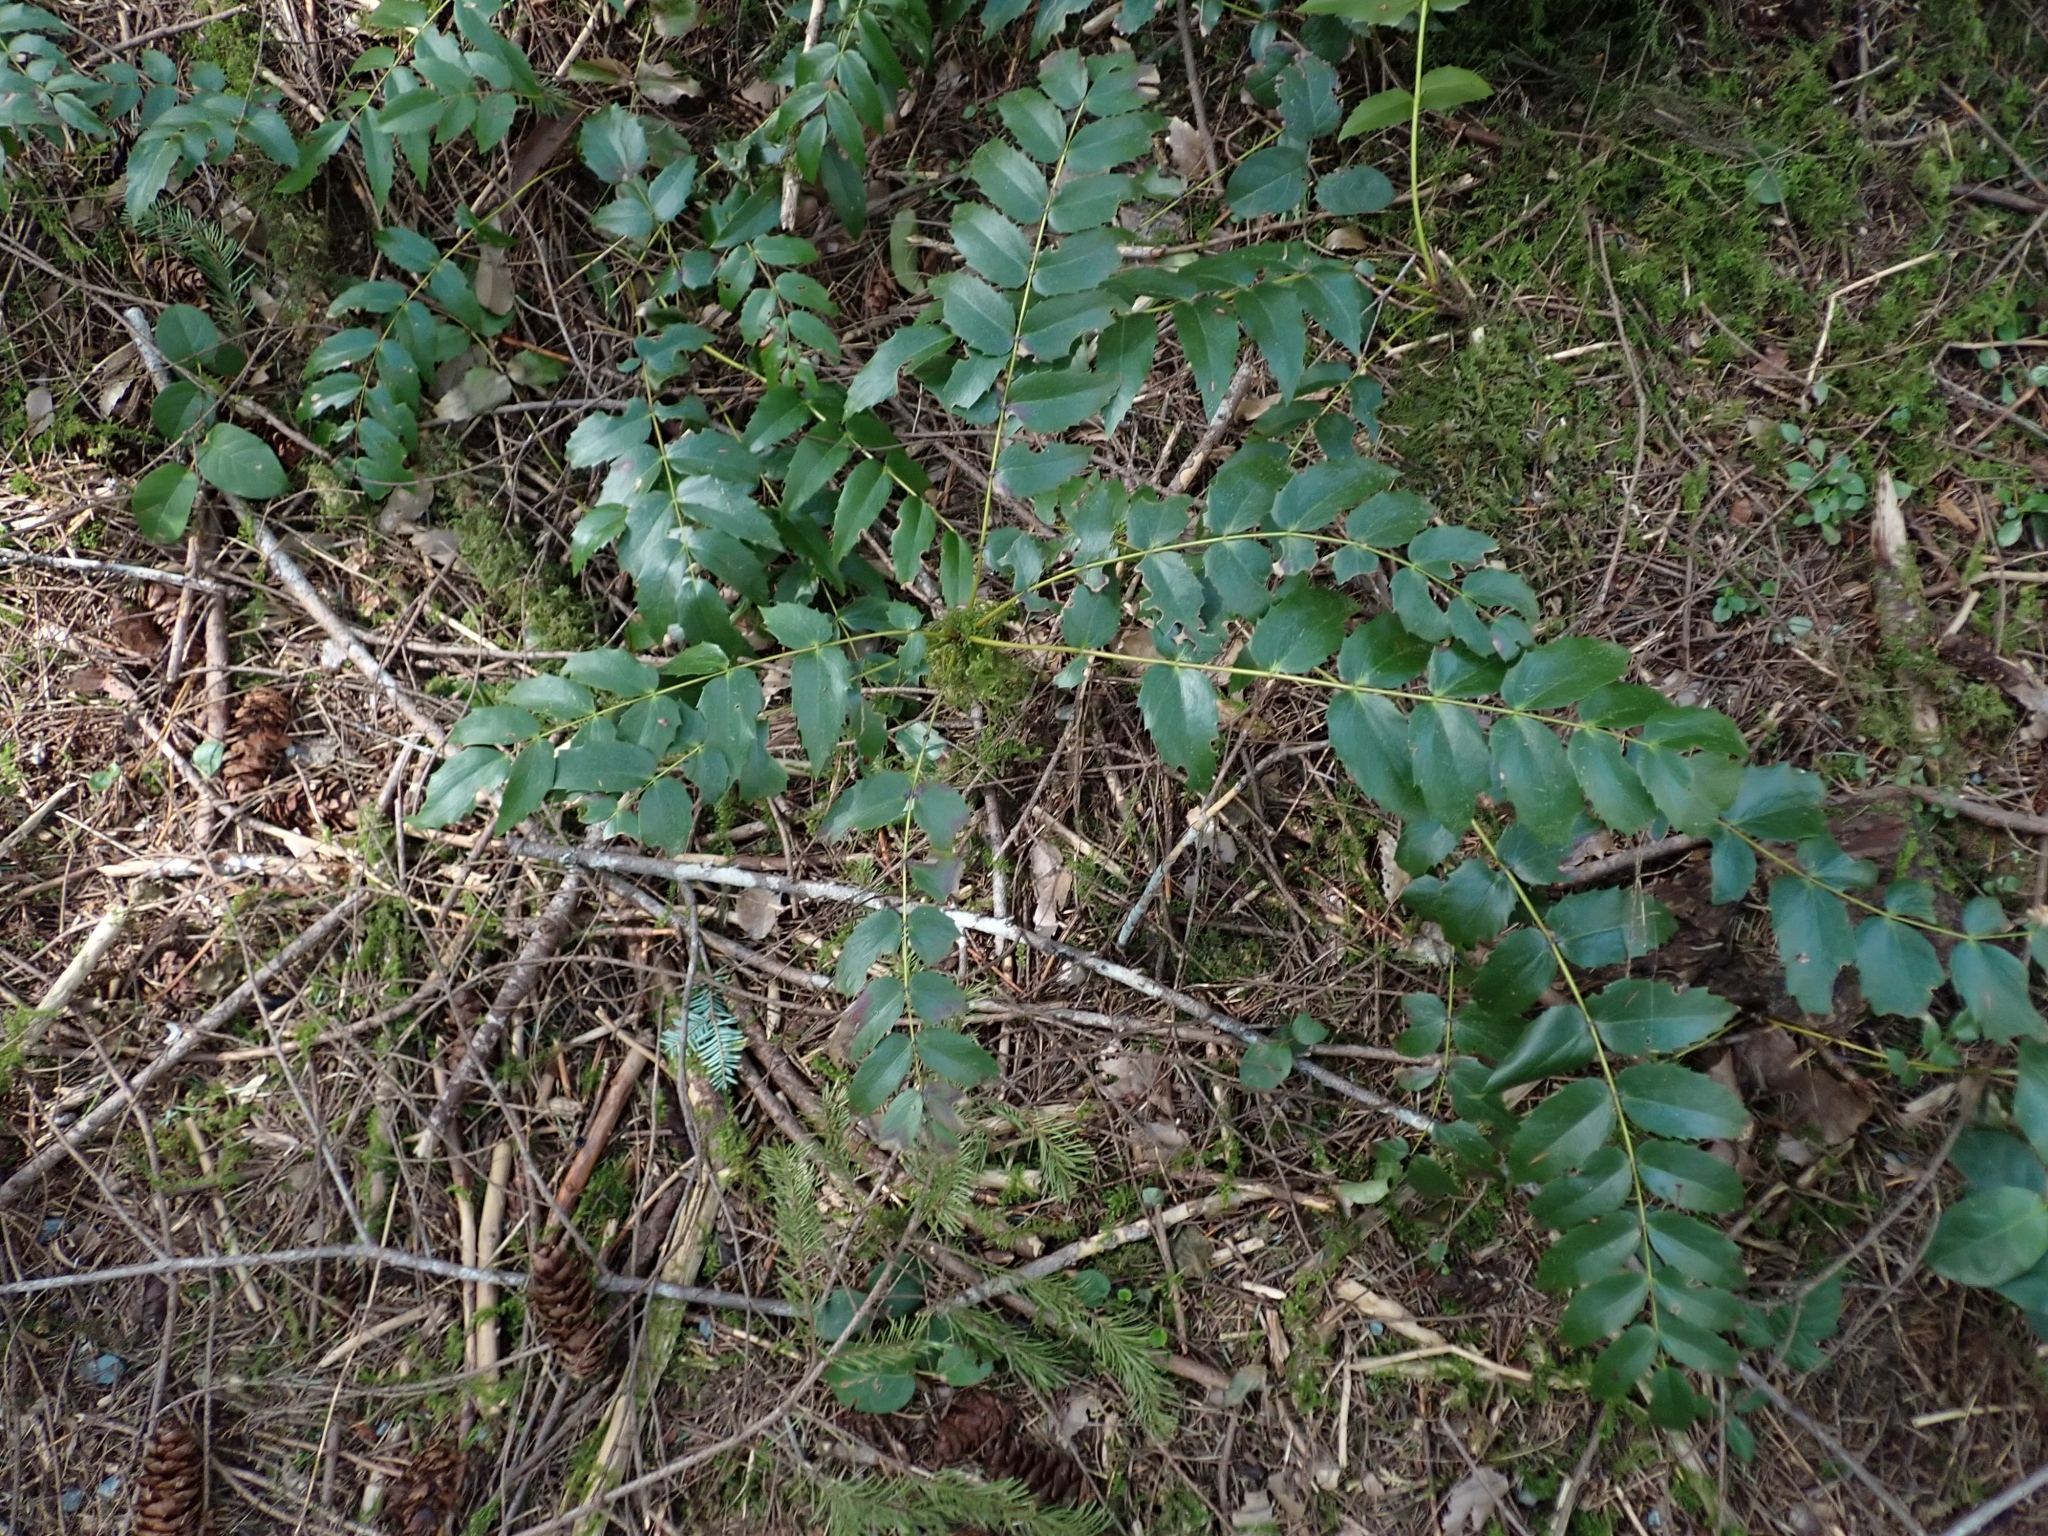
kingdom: Plantae
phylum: Tracheophyta
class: Magnoliopsida
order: Ranunculales
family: Berberidaceae
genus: Mahonia
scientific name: Mahonia nervosa
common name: Cascade oregon-grape
